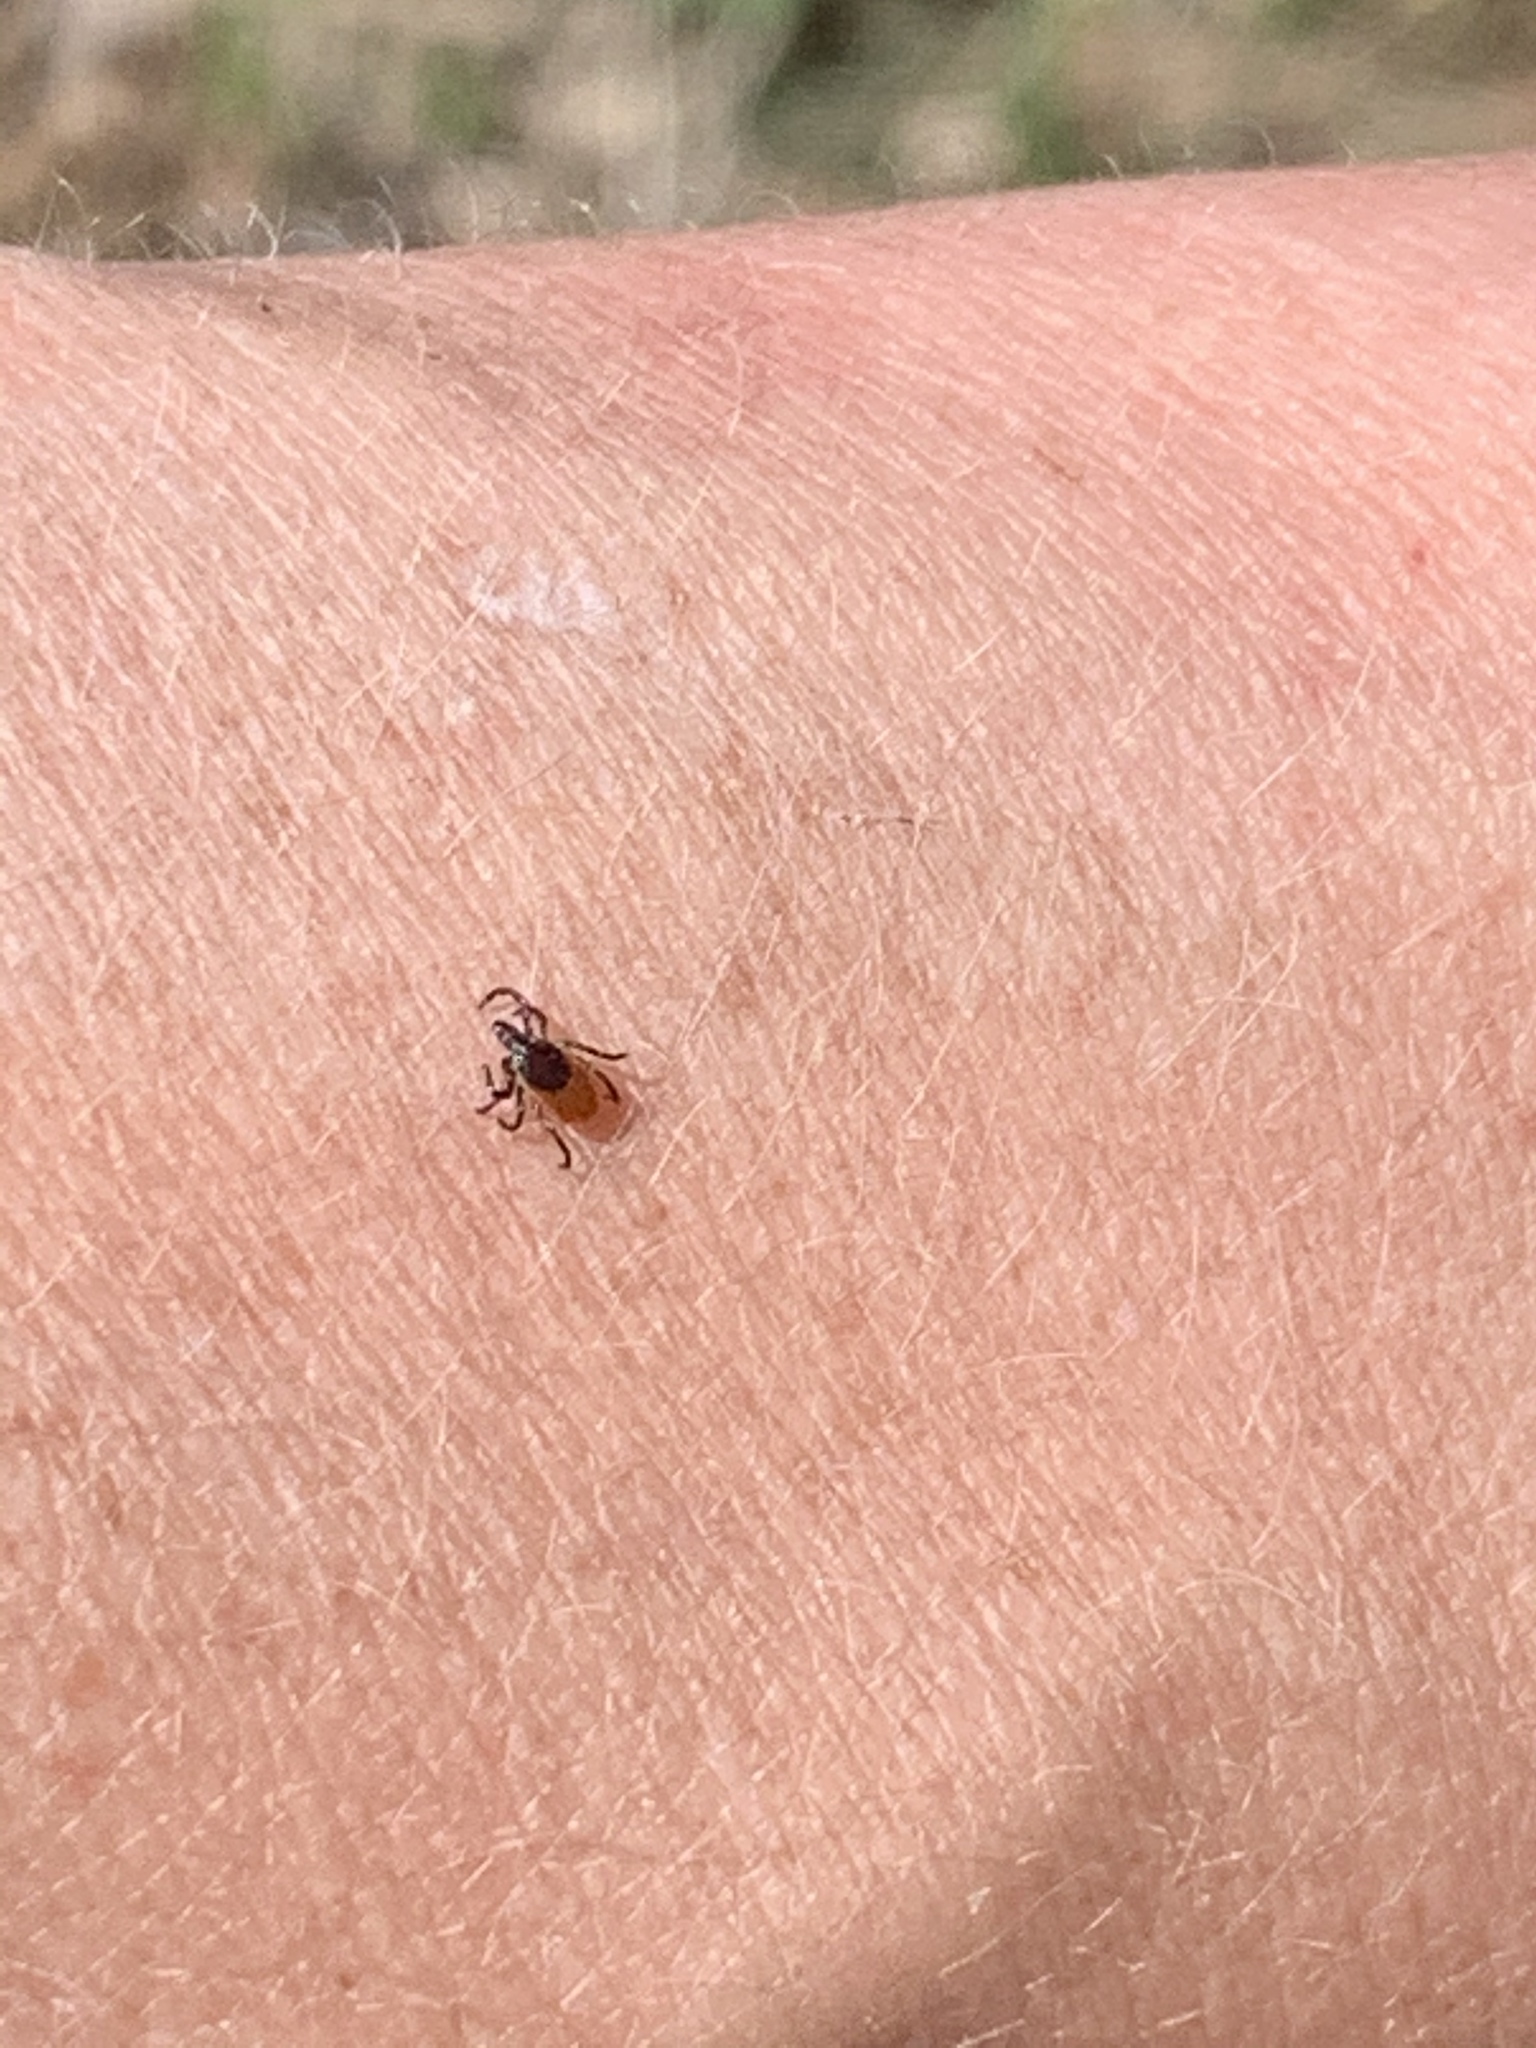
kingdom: Animalia
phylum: Arthropoda
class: Arachnida
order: Ixodida
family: Ixodidae
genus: Ixodes
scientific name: Ixodes scapularis
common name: Black legged tick
